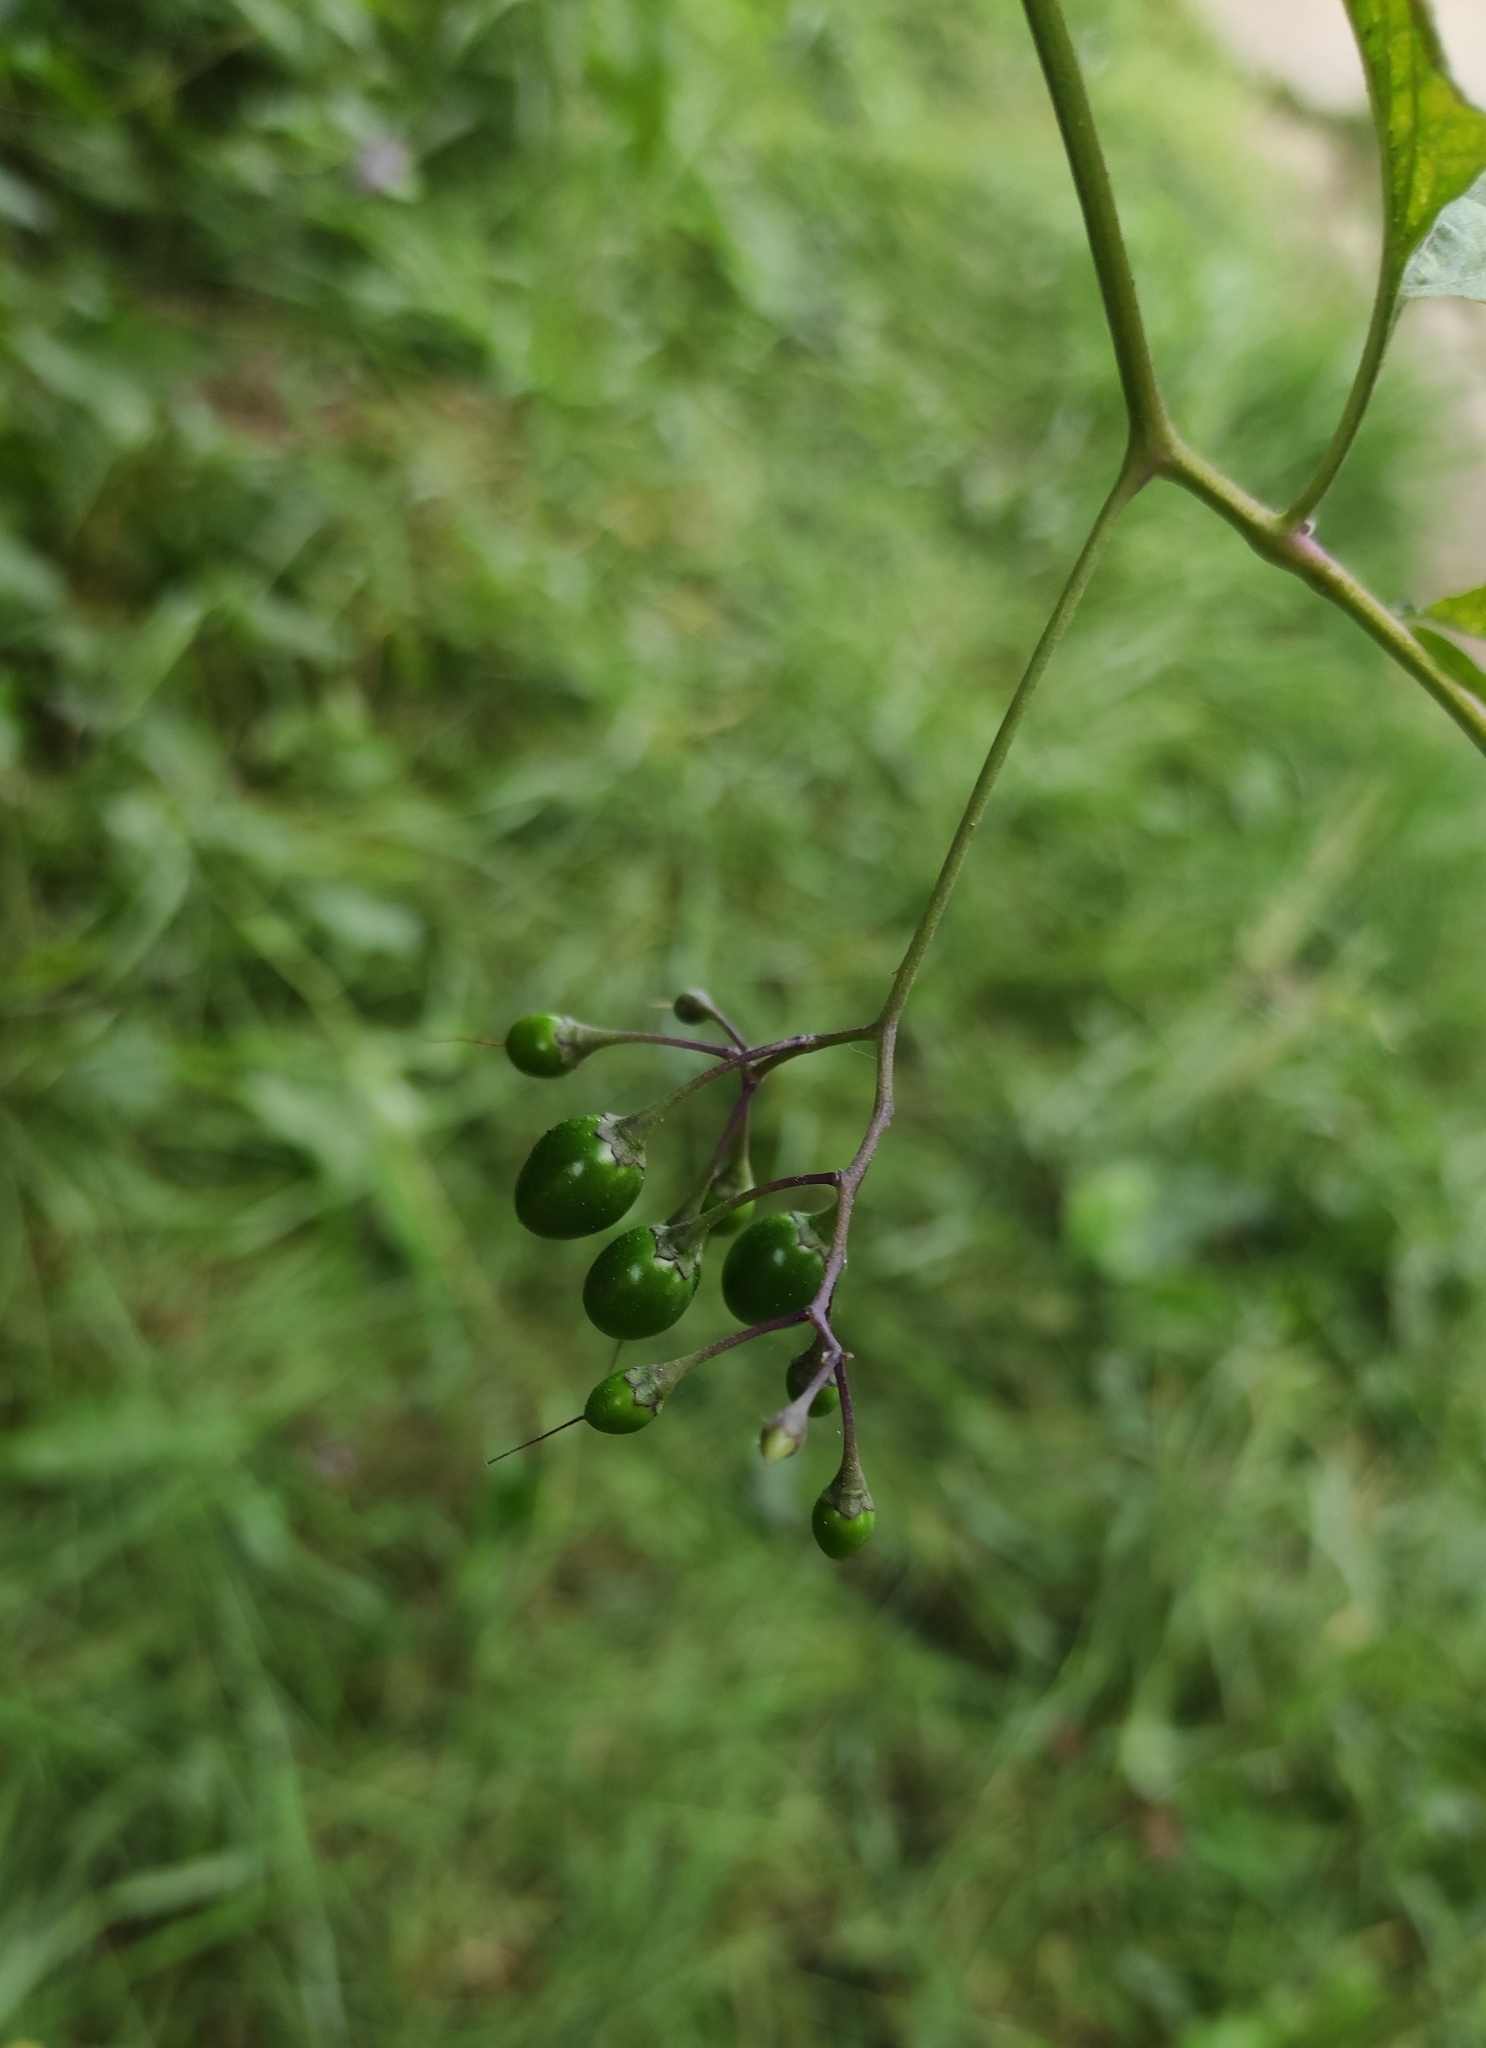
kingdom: Plantae
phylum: Tracheophyta
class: Magnoliopsida
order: Solanales
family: Solanaceae
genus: Solanum
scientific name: Solanum dulcamara
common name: Climbing nightshade
